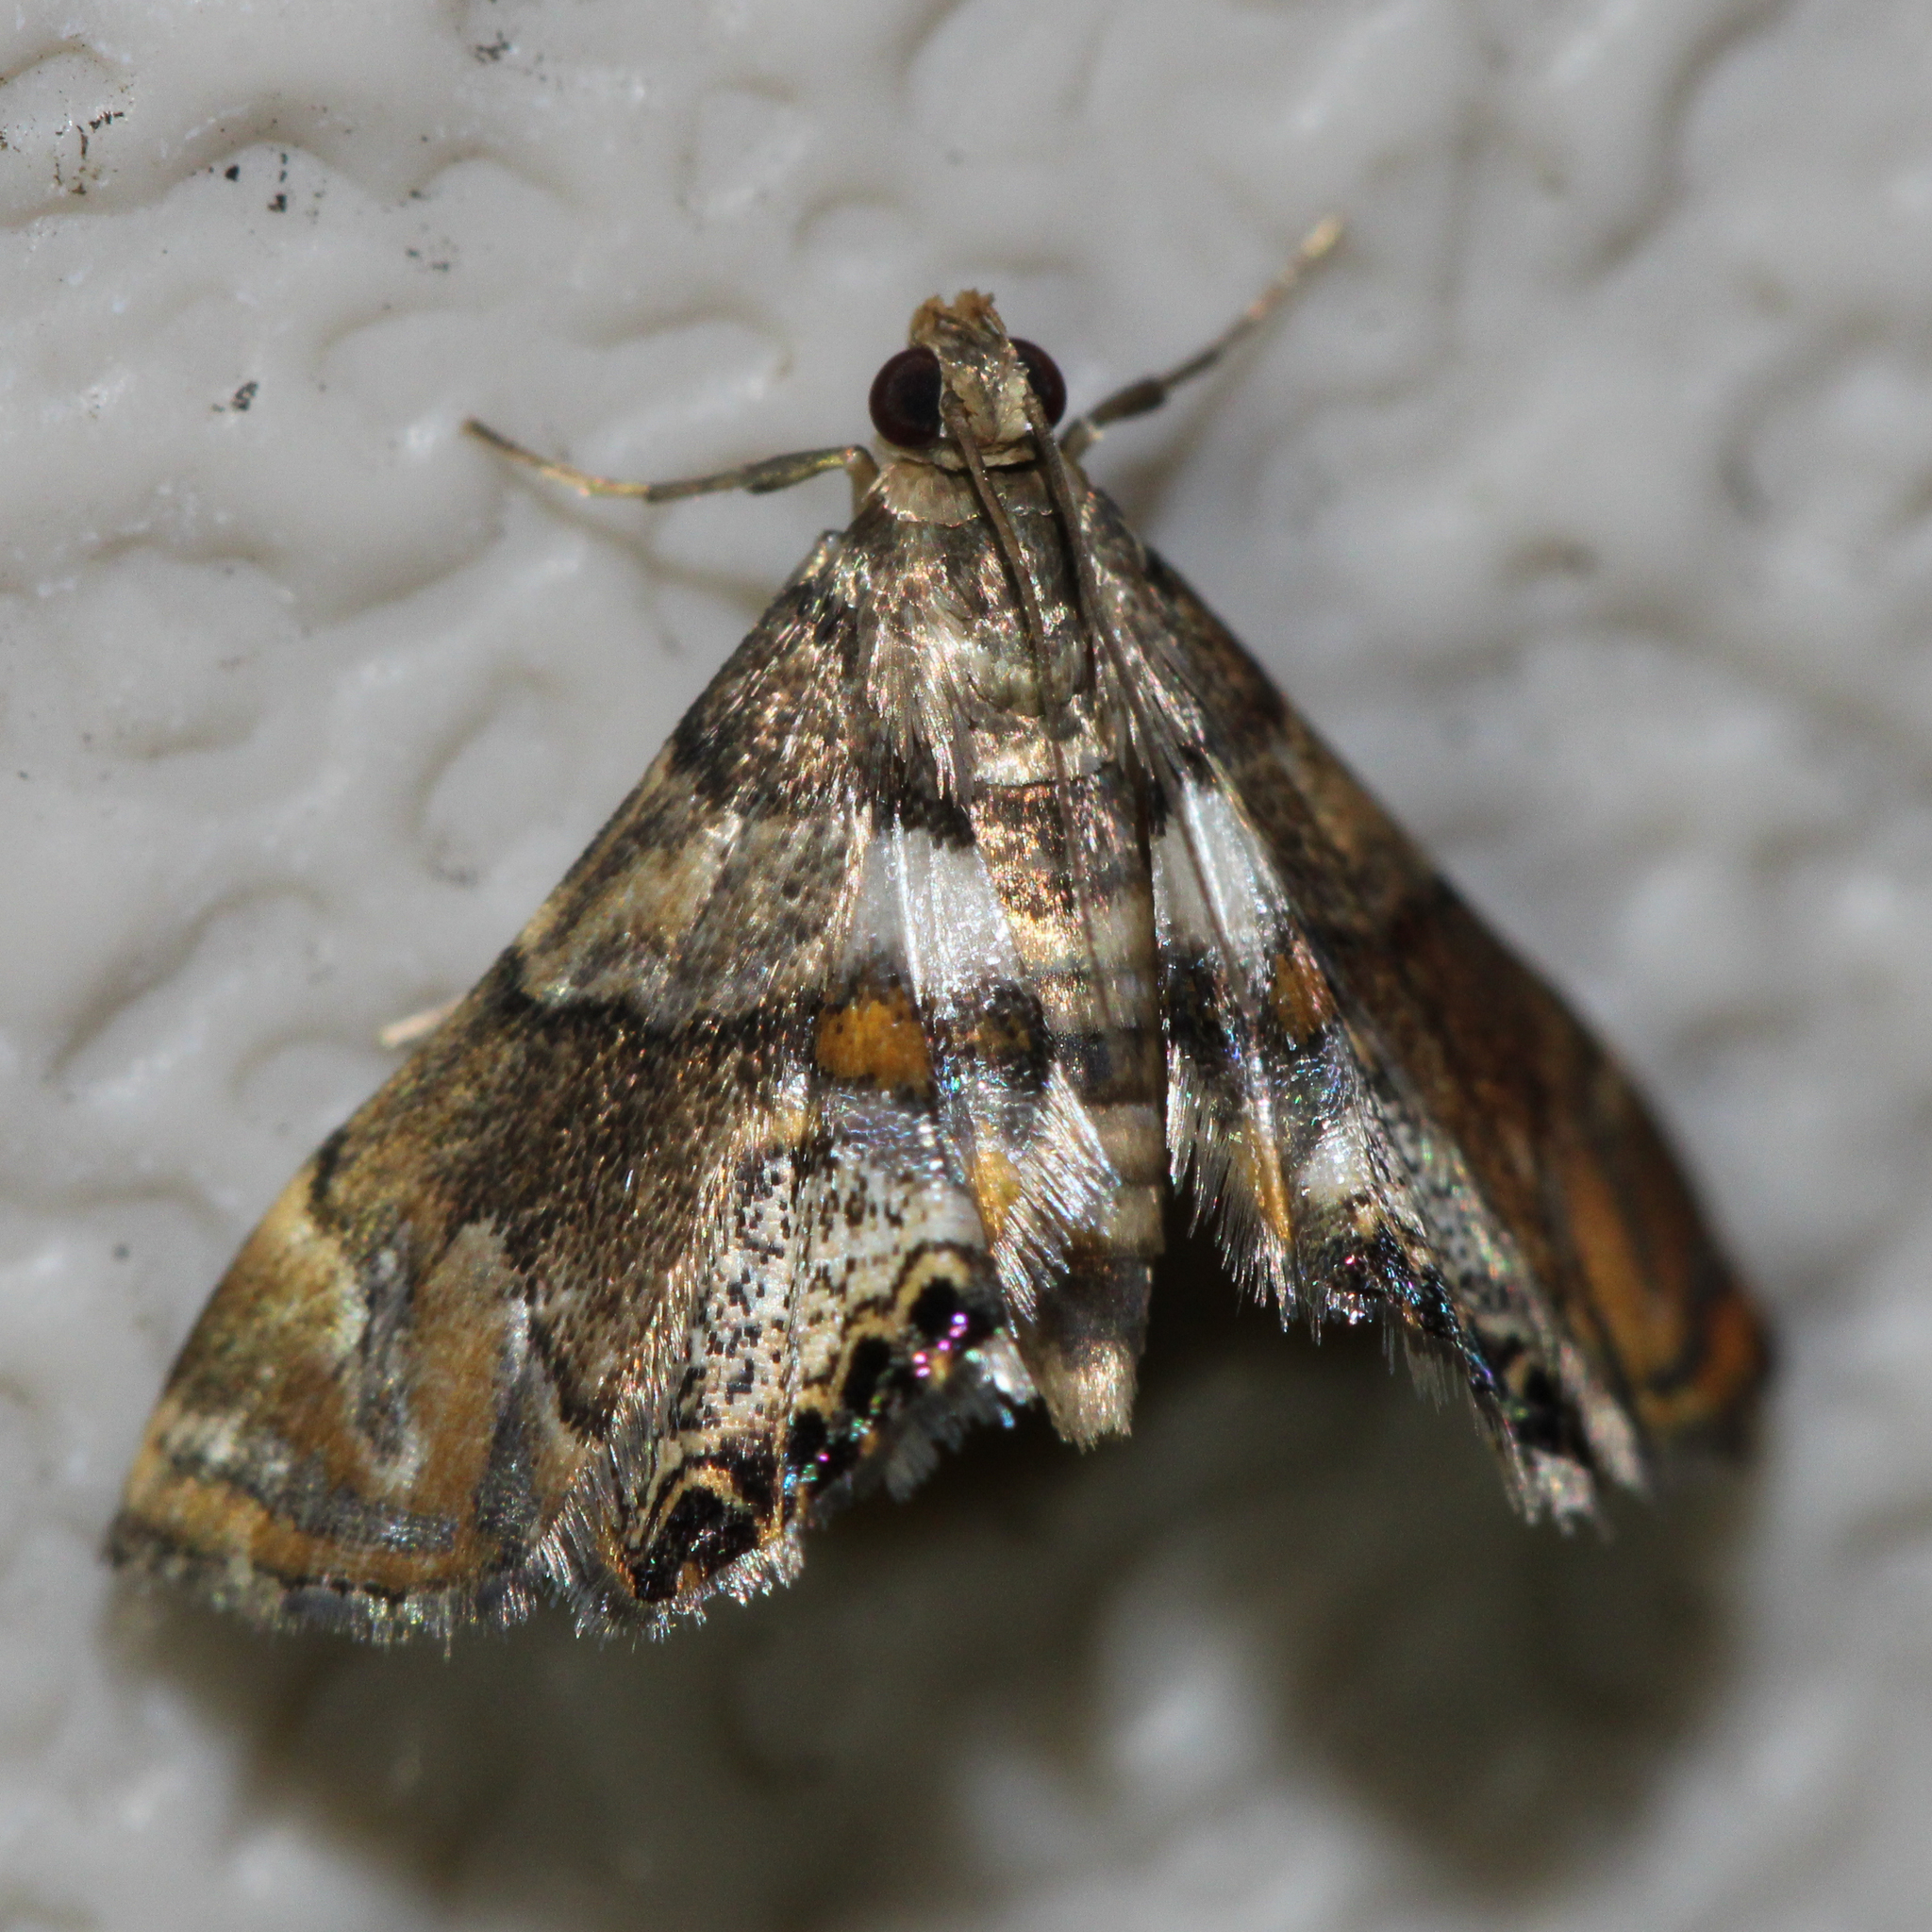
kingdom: Animalia
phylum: Arthropoda
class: Insecta
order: Lepidoptera
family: Crambidae
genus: Neargyractis
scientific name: Neargyractis slossonalis
